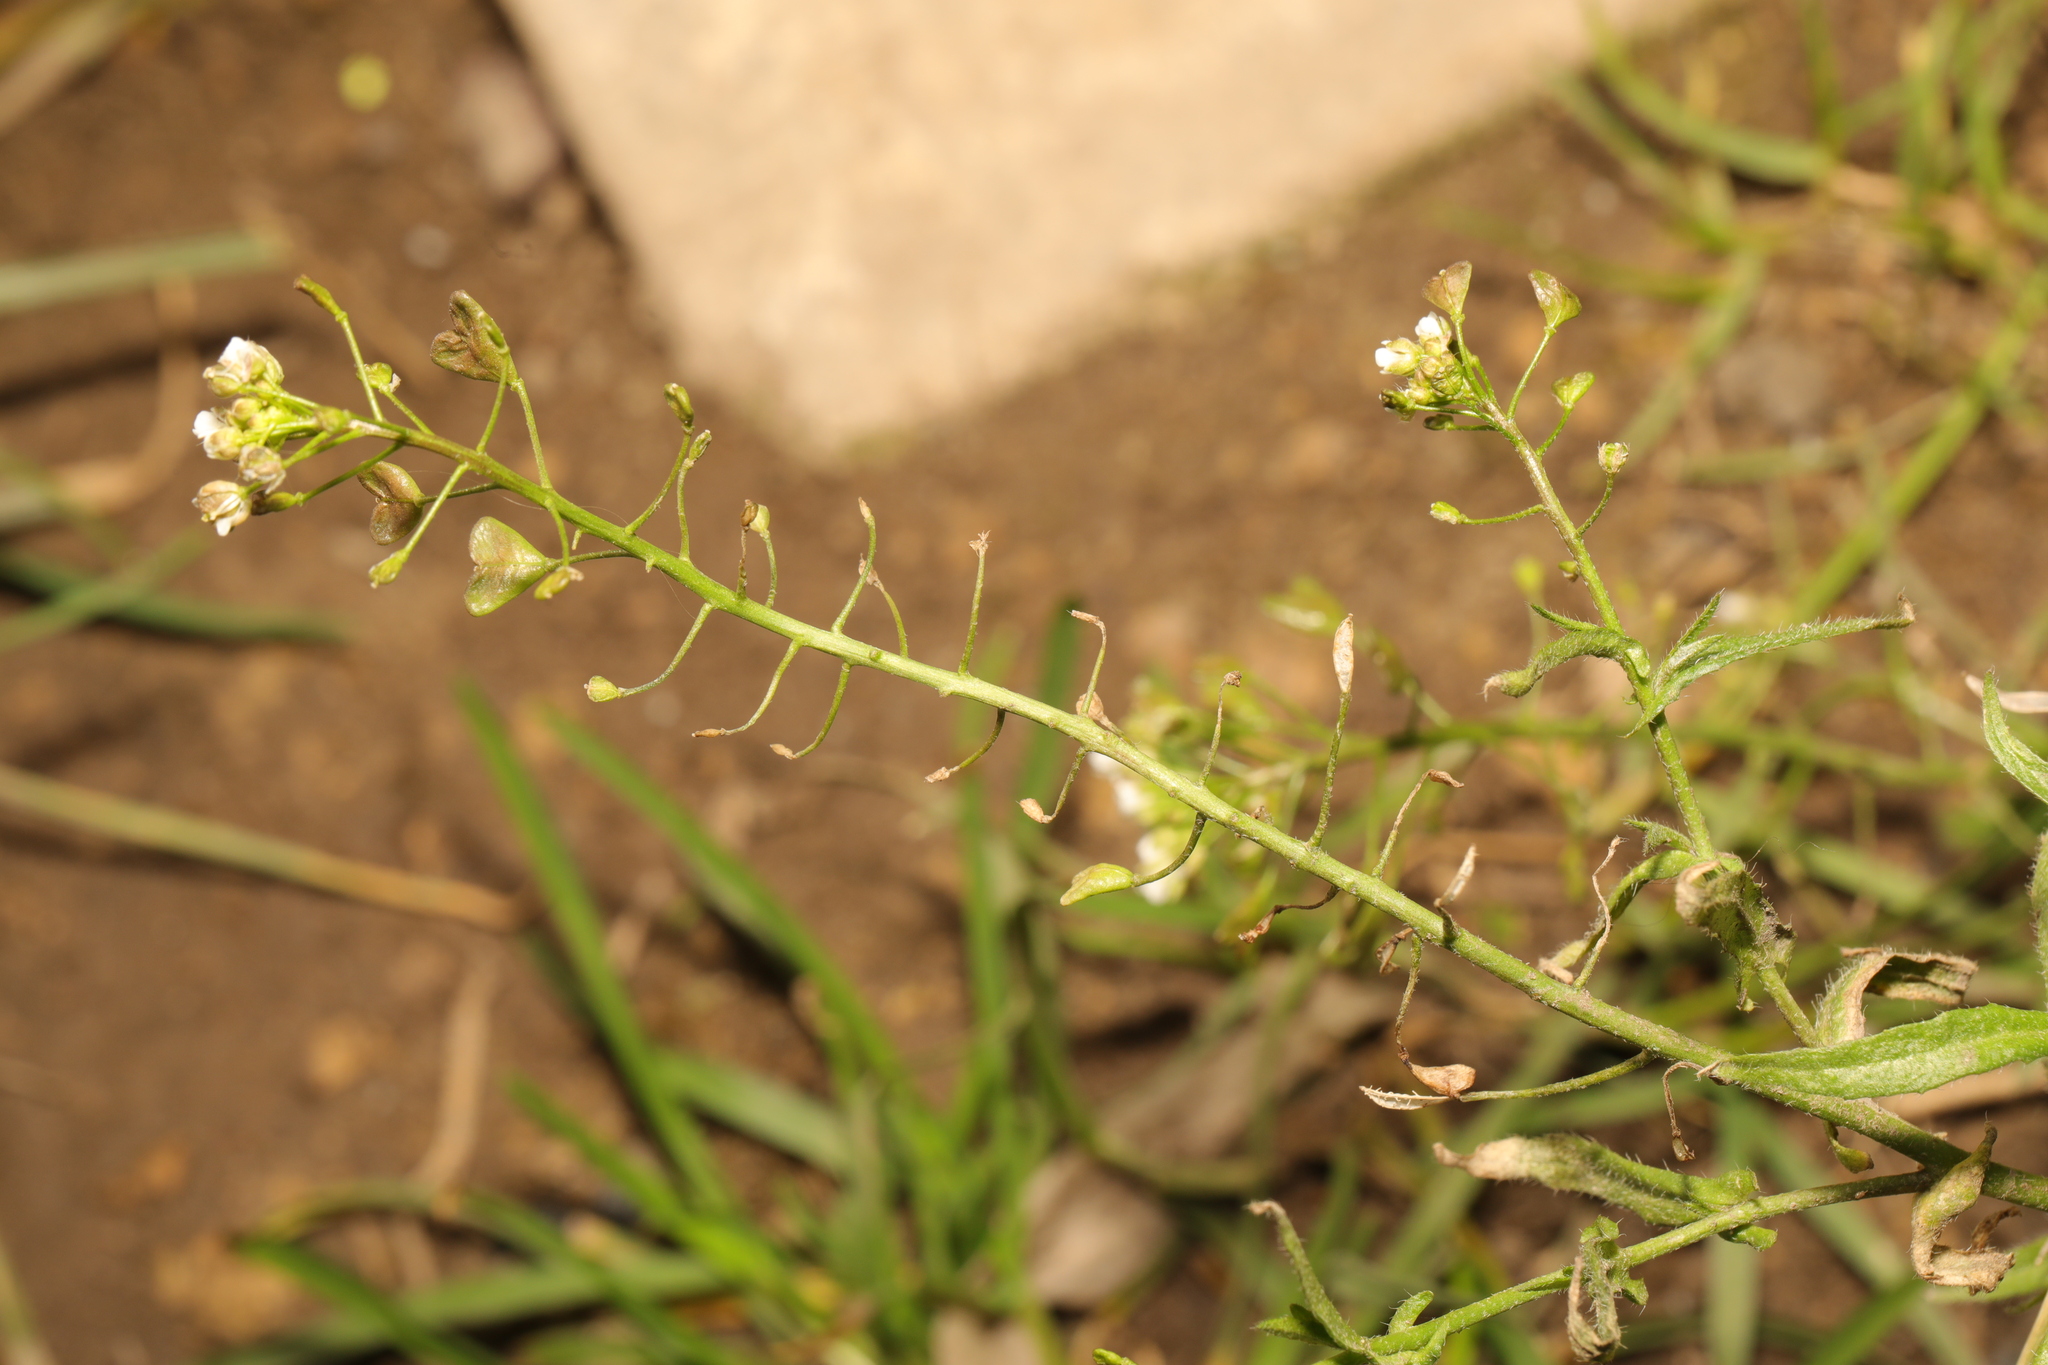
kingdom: Plantae
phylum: Tracheophyta
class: Magnoliopsida
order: Brassicales
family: Brassicaceae
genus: Capsella
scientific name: Capsella bursa-pastoris
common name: Shepherd's purse
